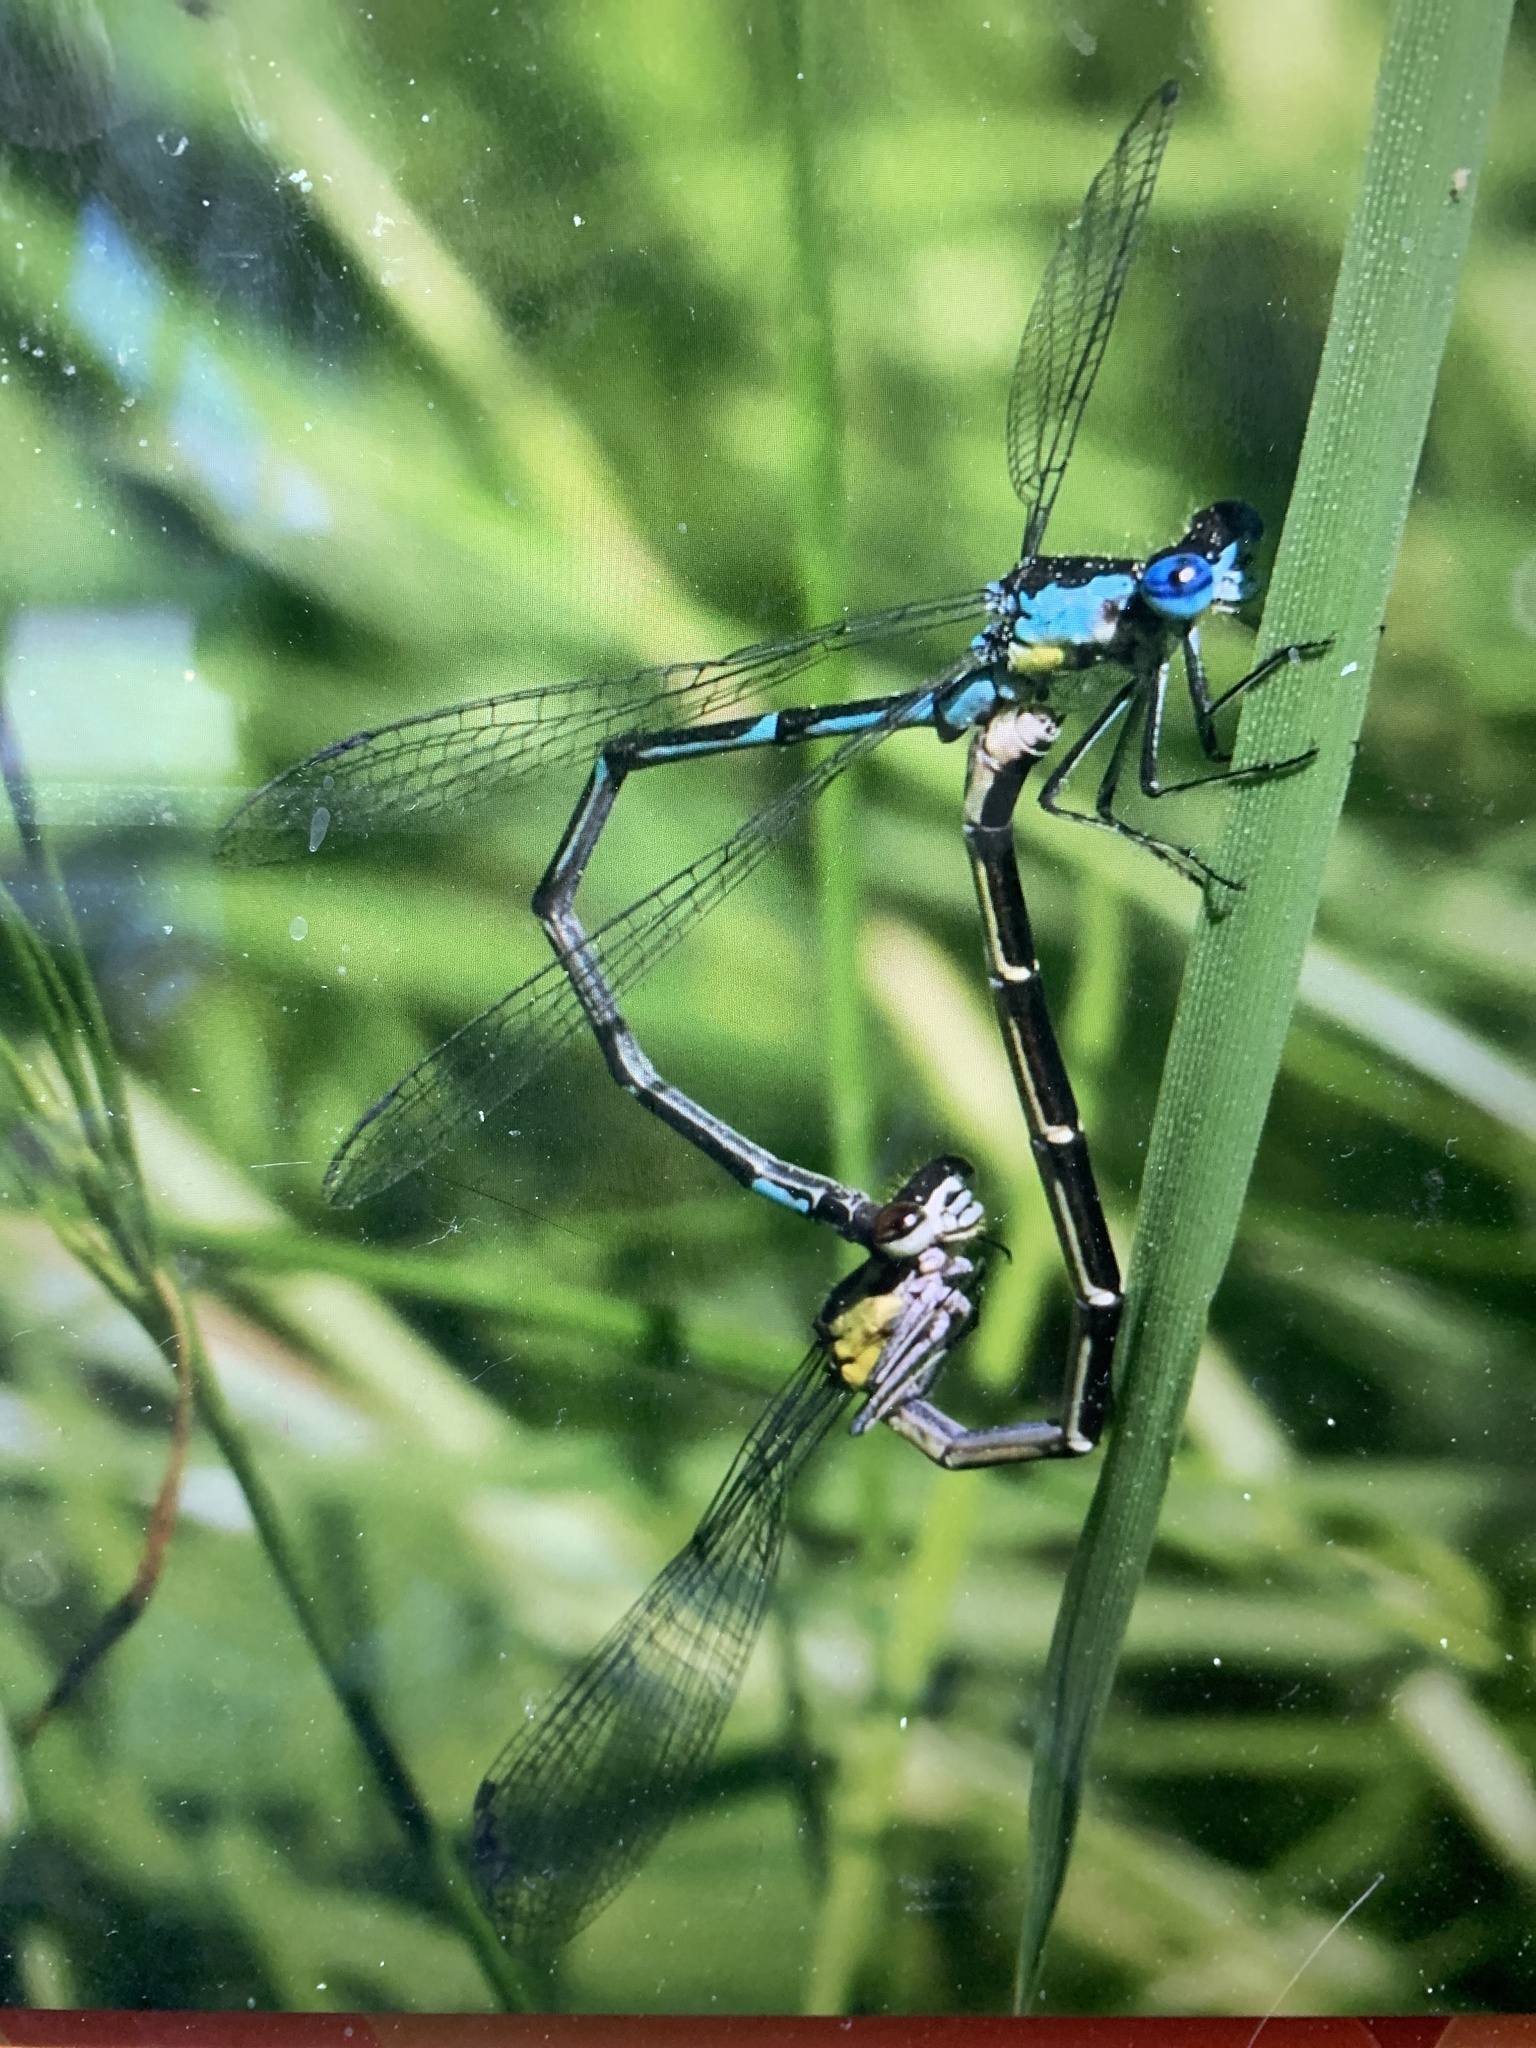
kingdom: Animalia
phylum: Arthropoda
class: Insecta
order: Odonata
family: Coenagrionidae
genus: Chromagrion
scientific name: Chromagrion conditum
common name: Aurora damsel
